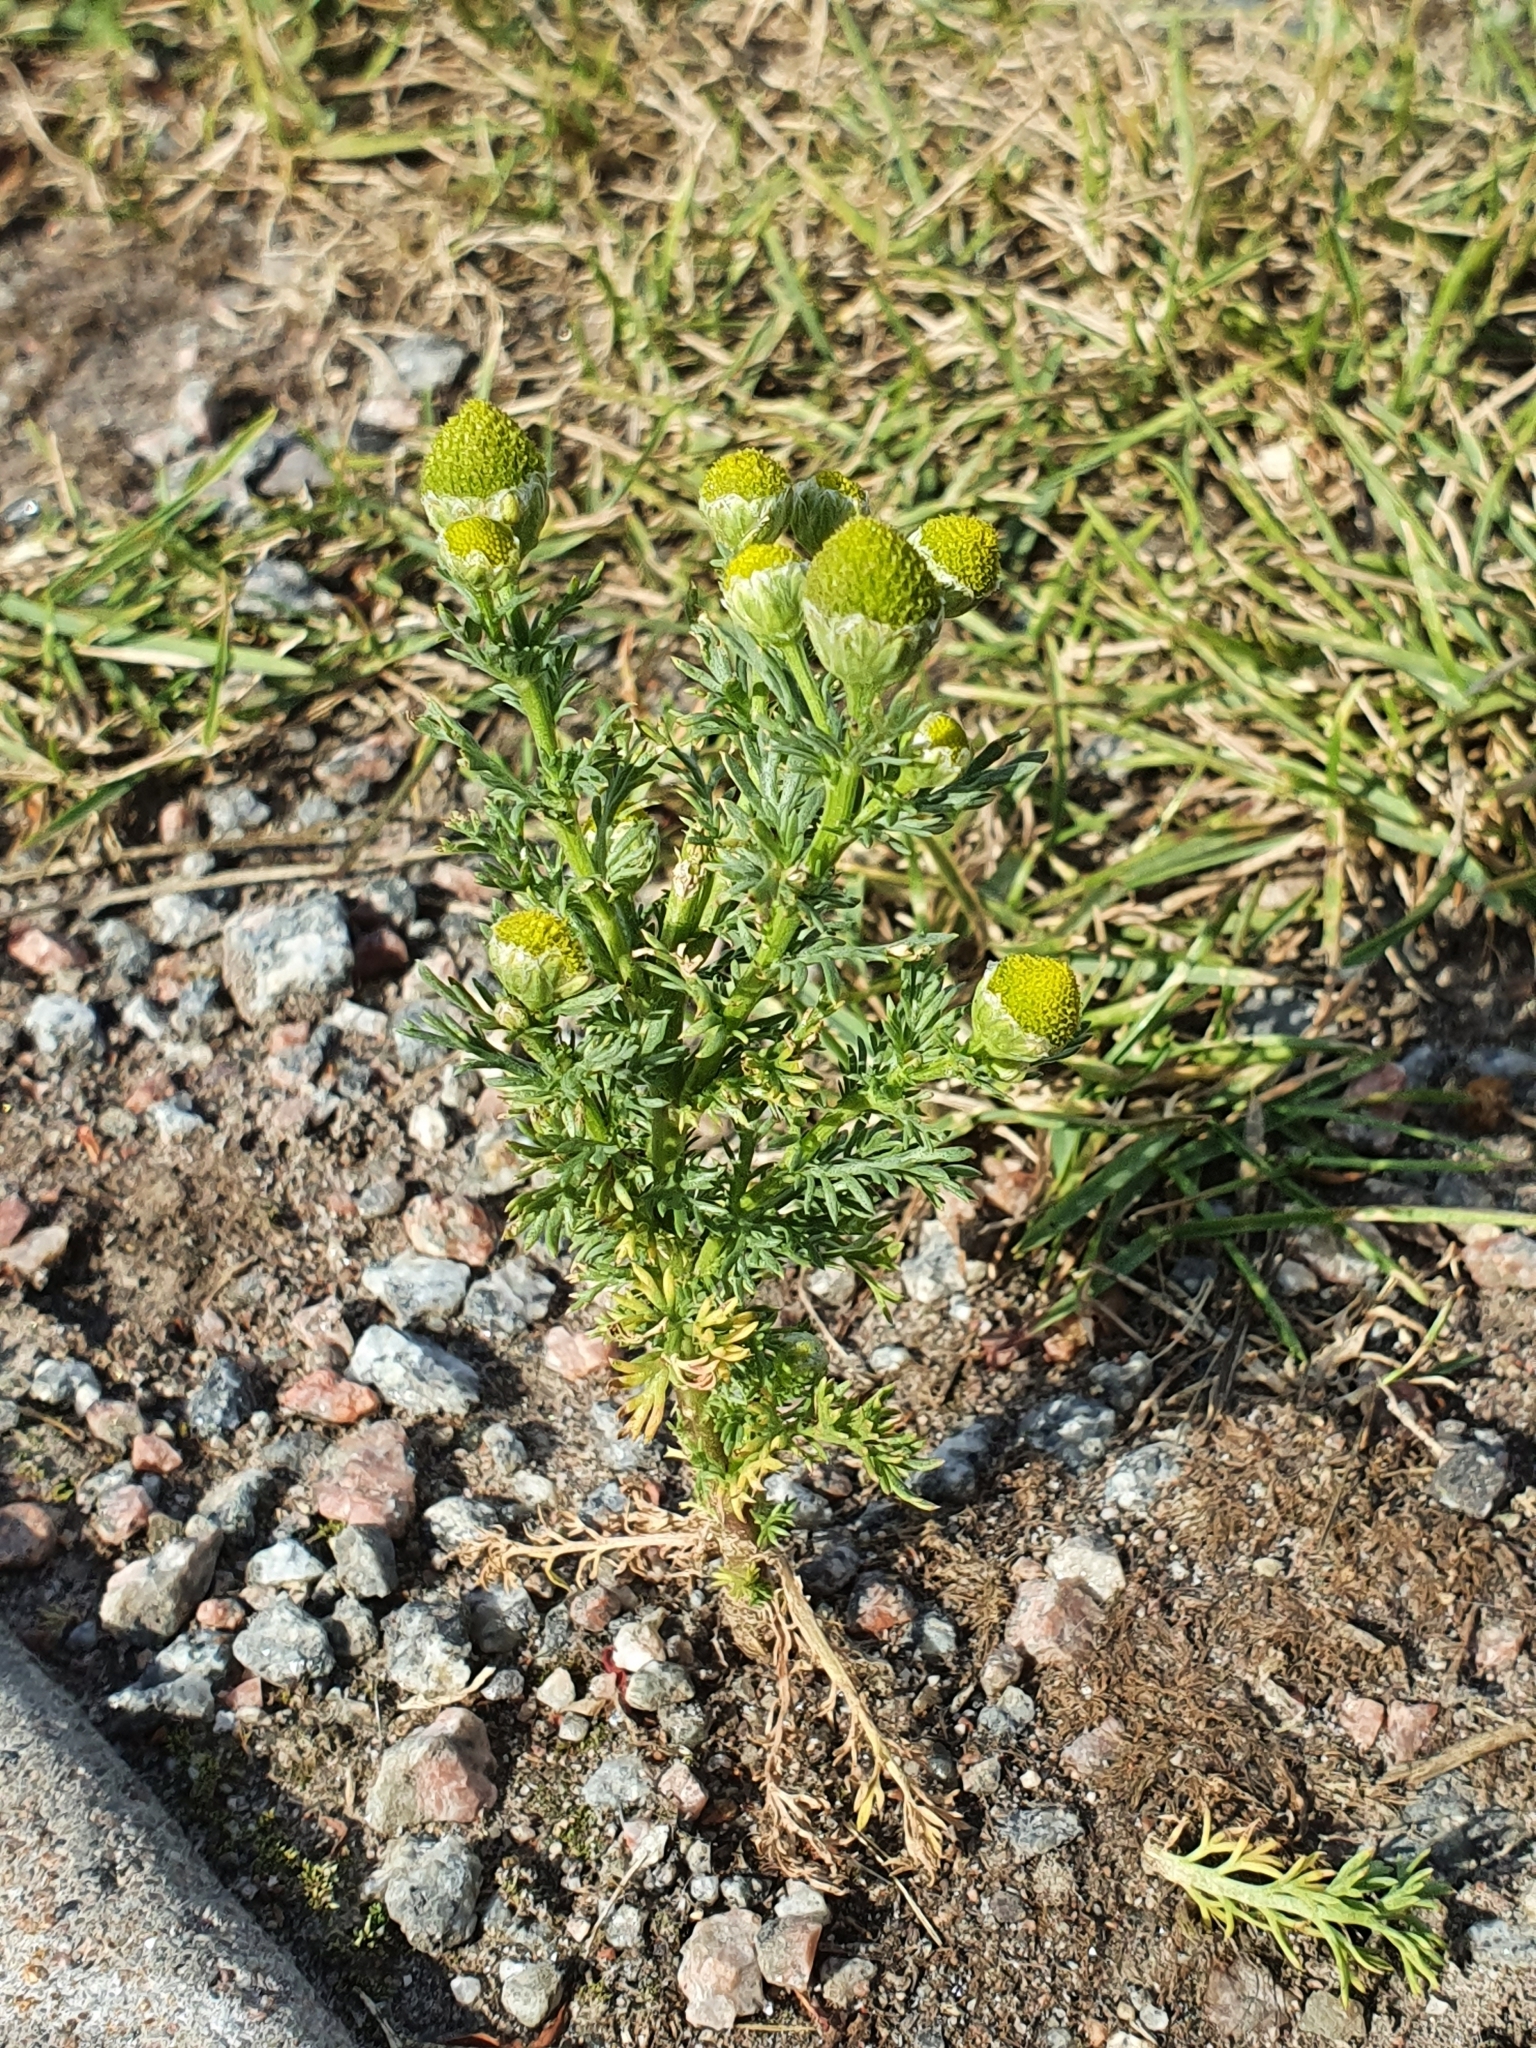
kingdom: Plantae
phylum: Tracheophyta
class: Magnoliopsida
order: Asterales
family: Asteraceae
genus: Matricaria
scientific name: Matricaria discoidea
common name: Disc mayweed
